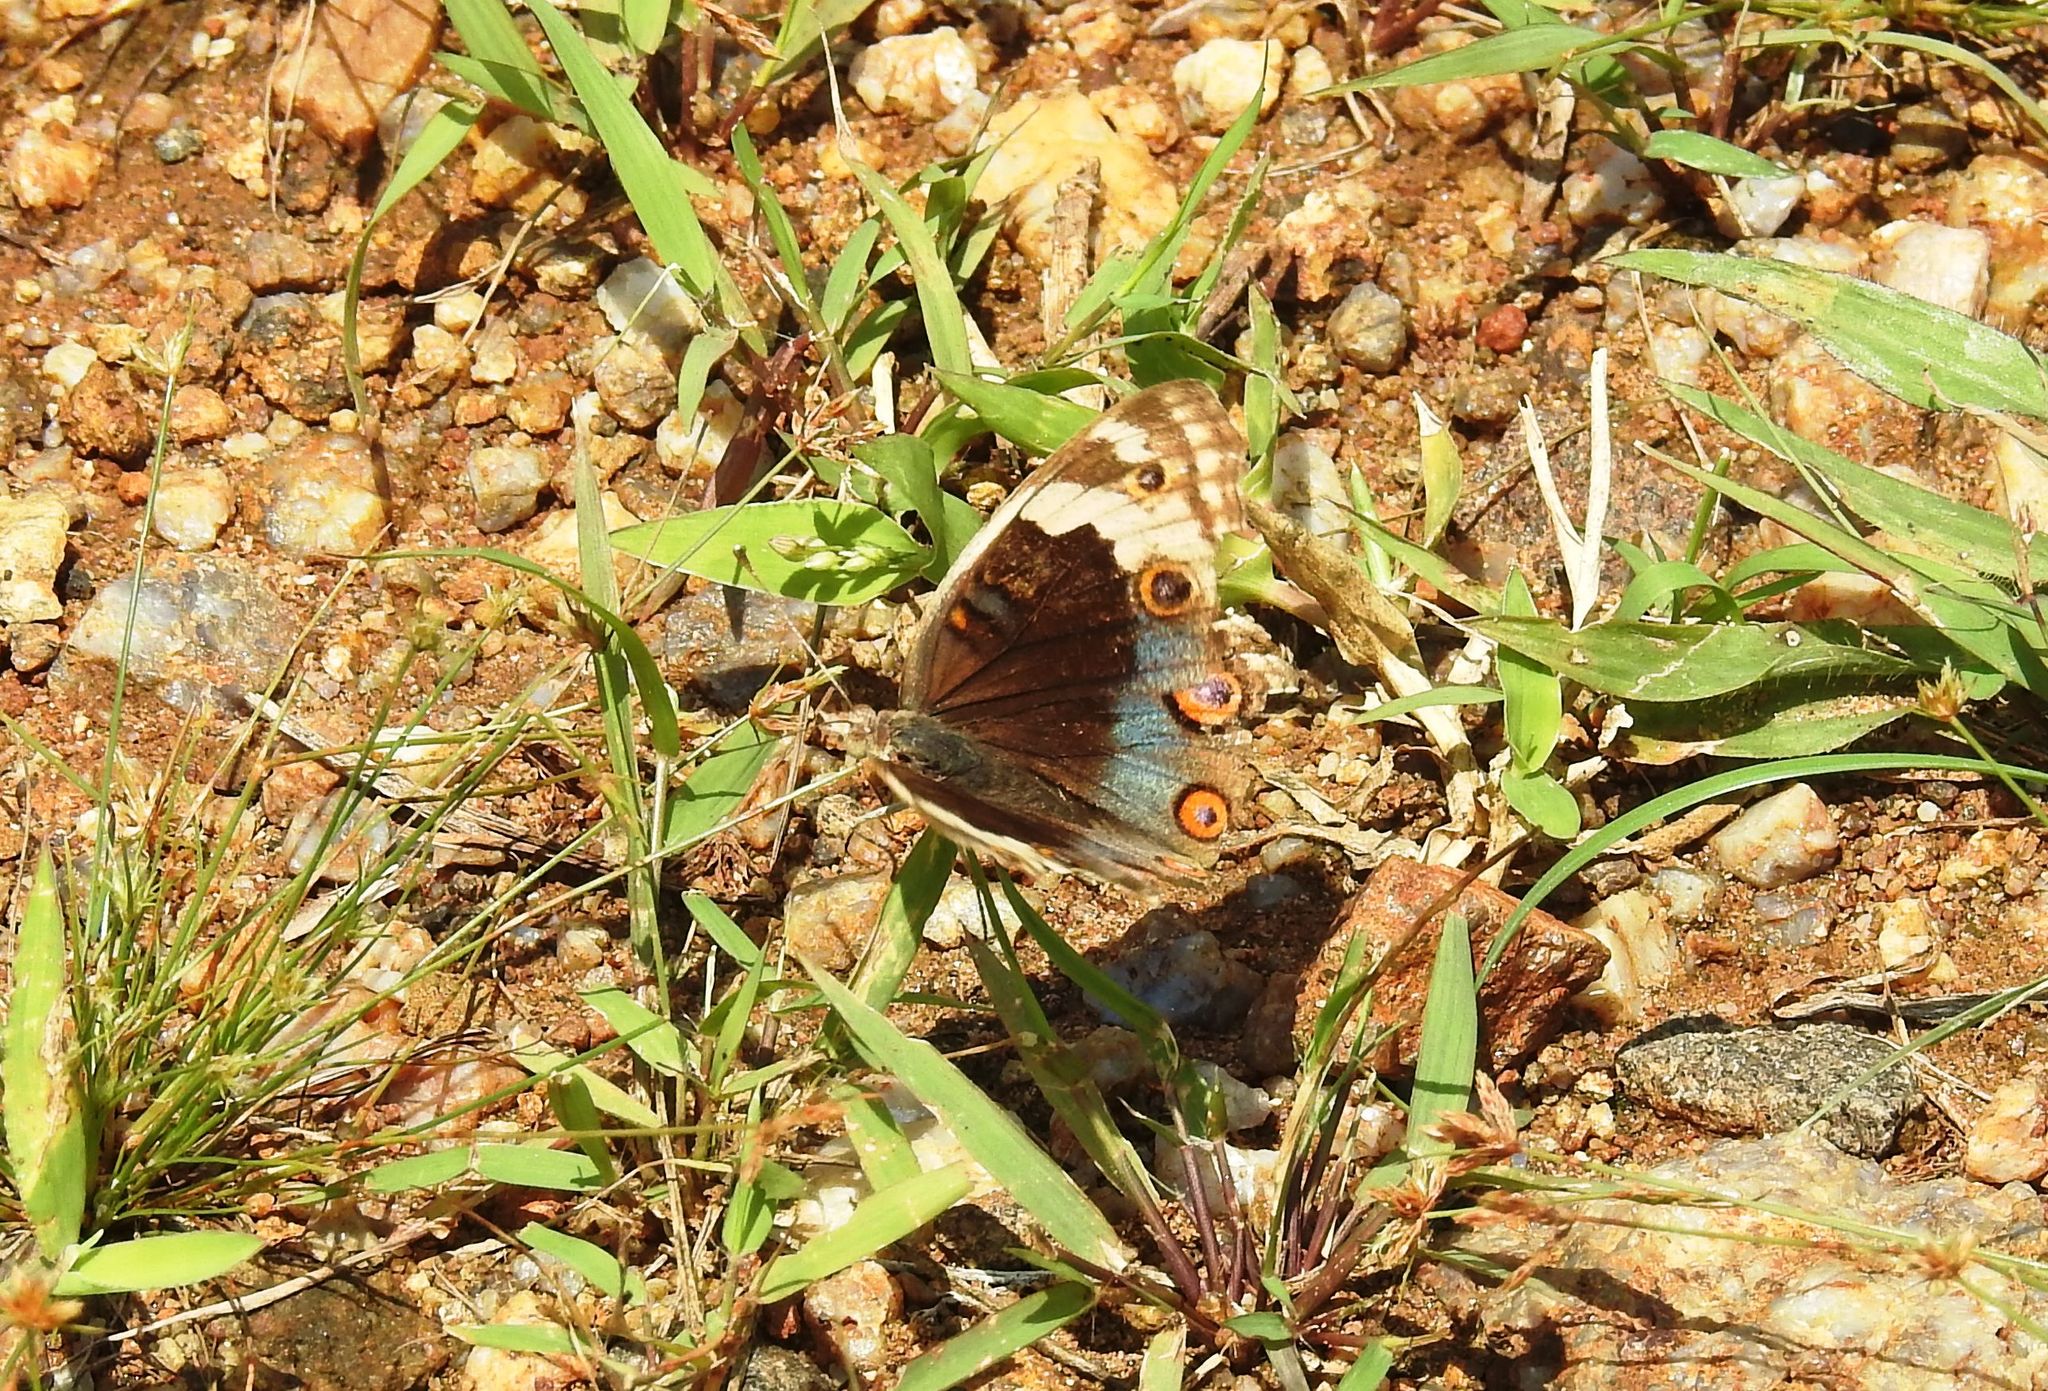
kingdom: Animalia
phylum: Arthropoda
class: Insecta
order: Lepidoptera
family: Nymphalidae
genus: Junonia
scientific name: Junonia orithya
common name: Blue pansy
